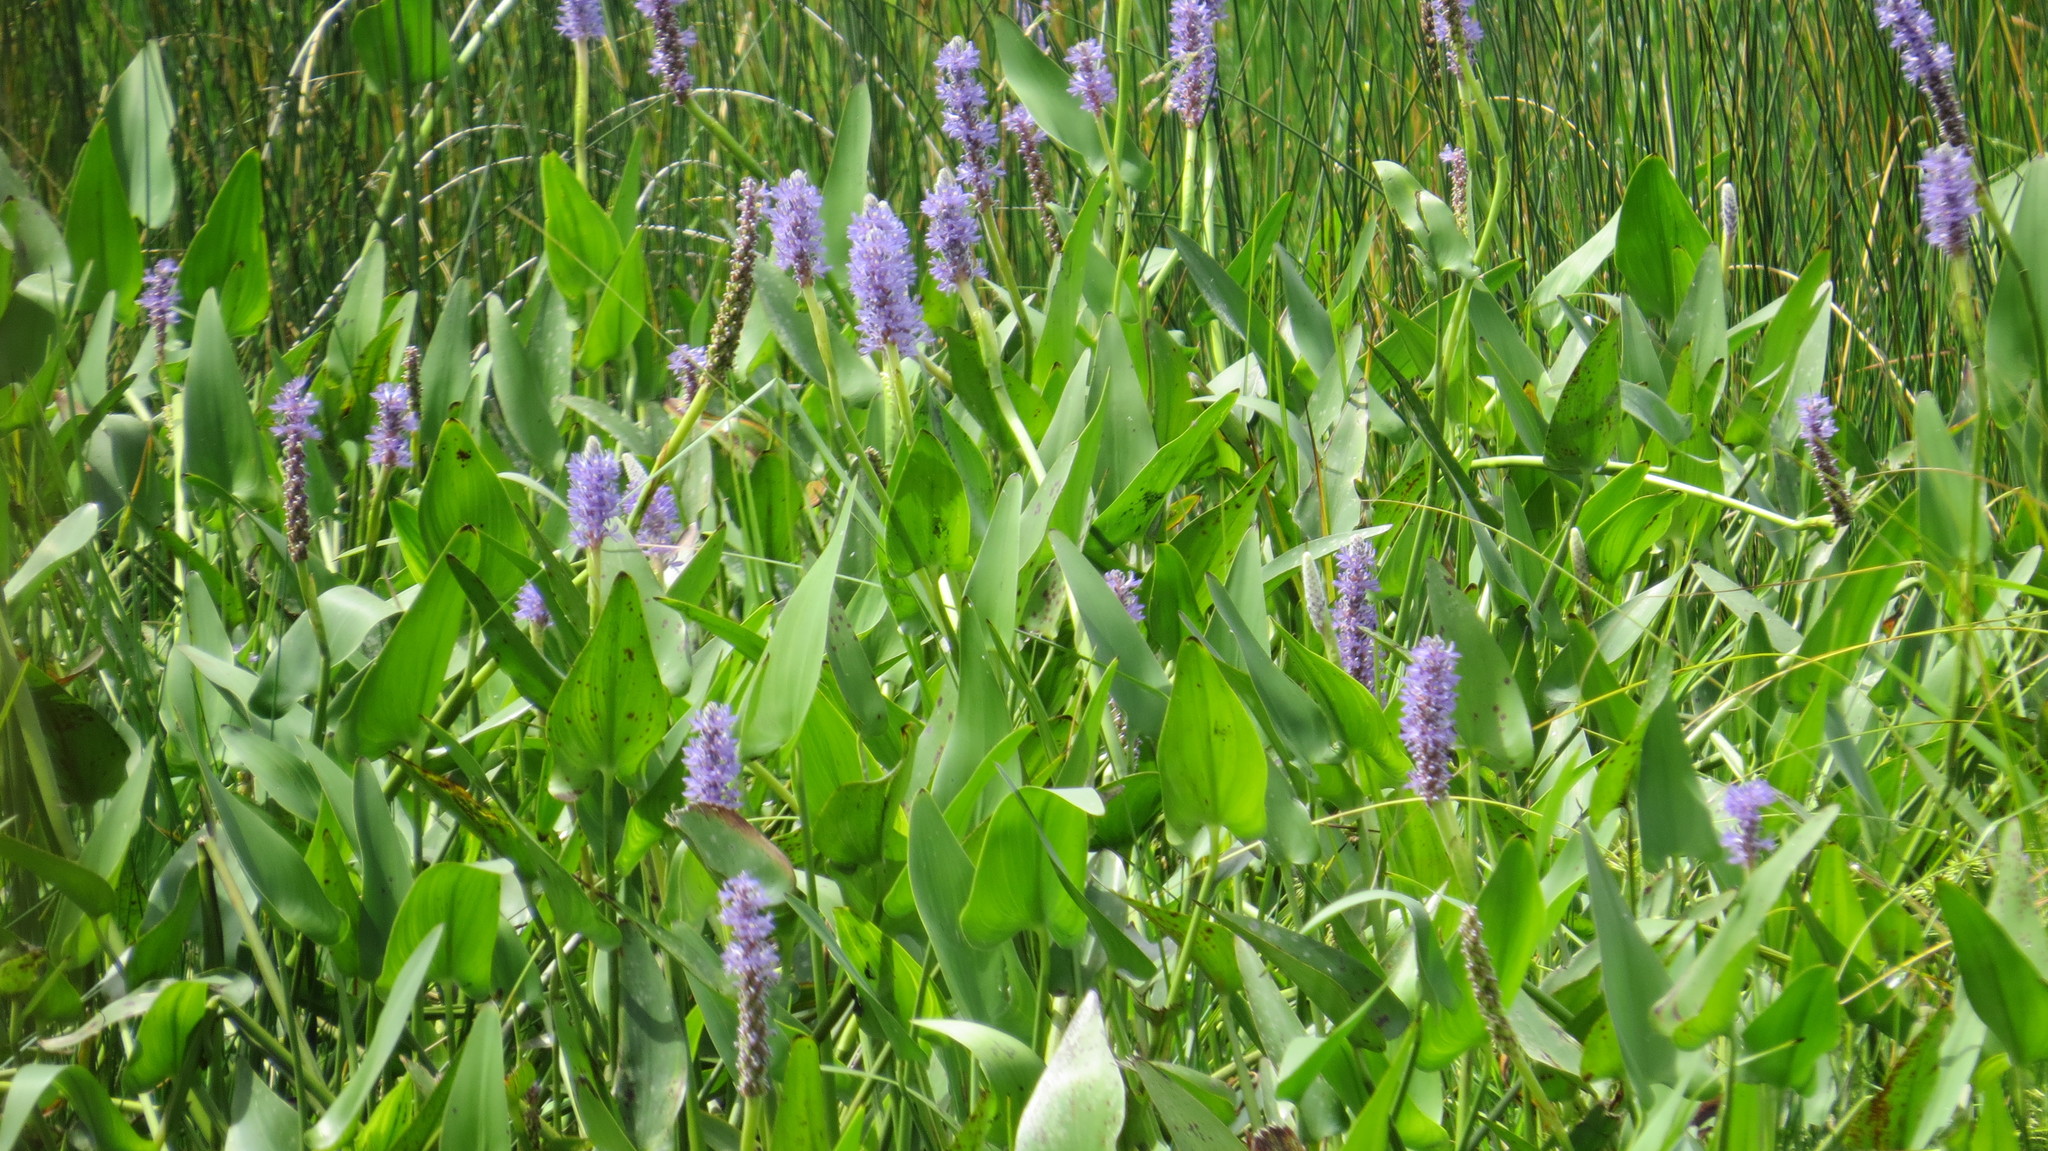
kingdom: Plantae
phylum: Tracheophyta
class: Liliopsida
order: Commelinales
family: Pontederiaceae
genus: Pontederia
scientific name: Pontederia cordata
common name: Pickerelweed
